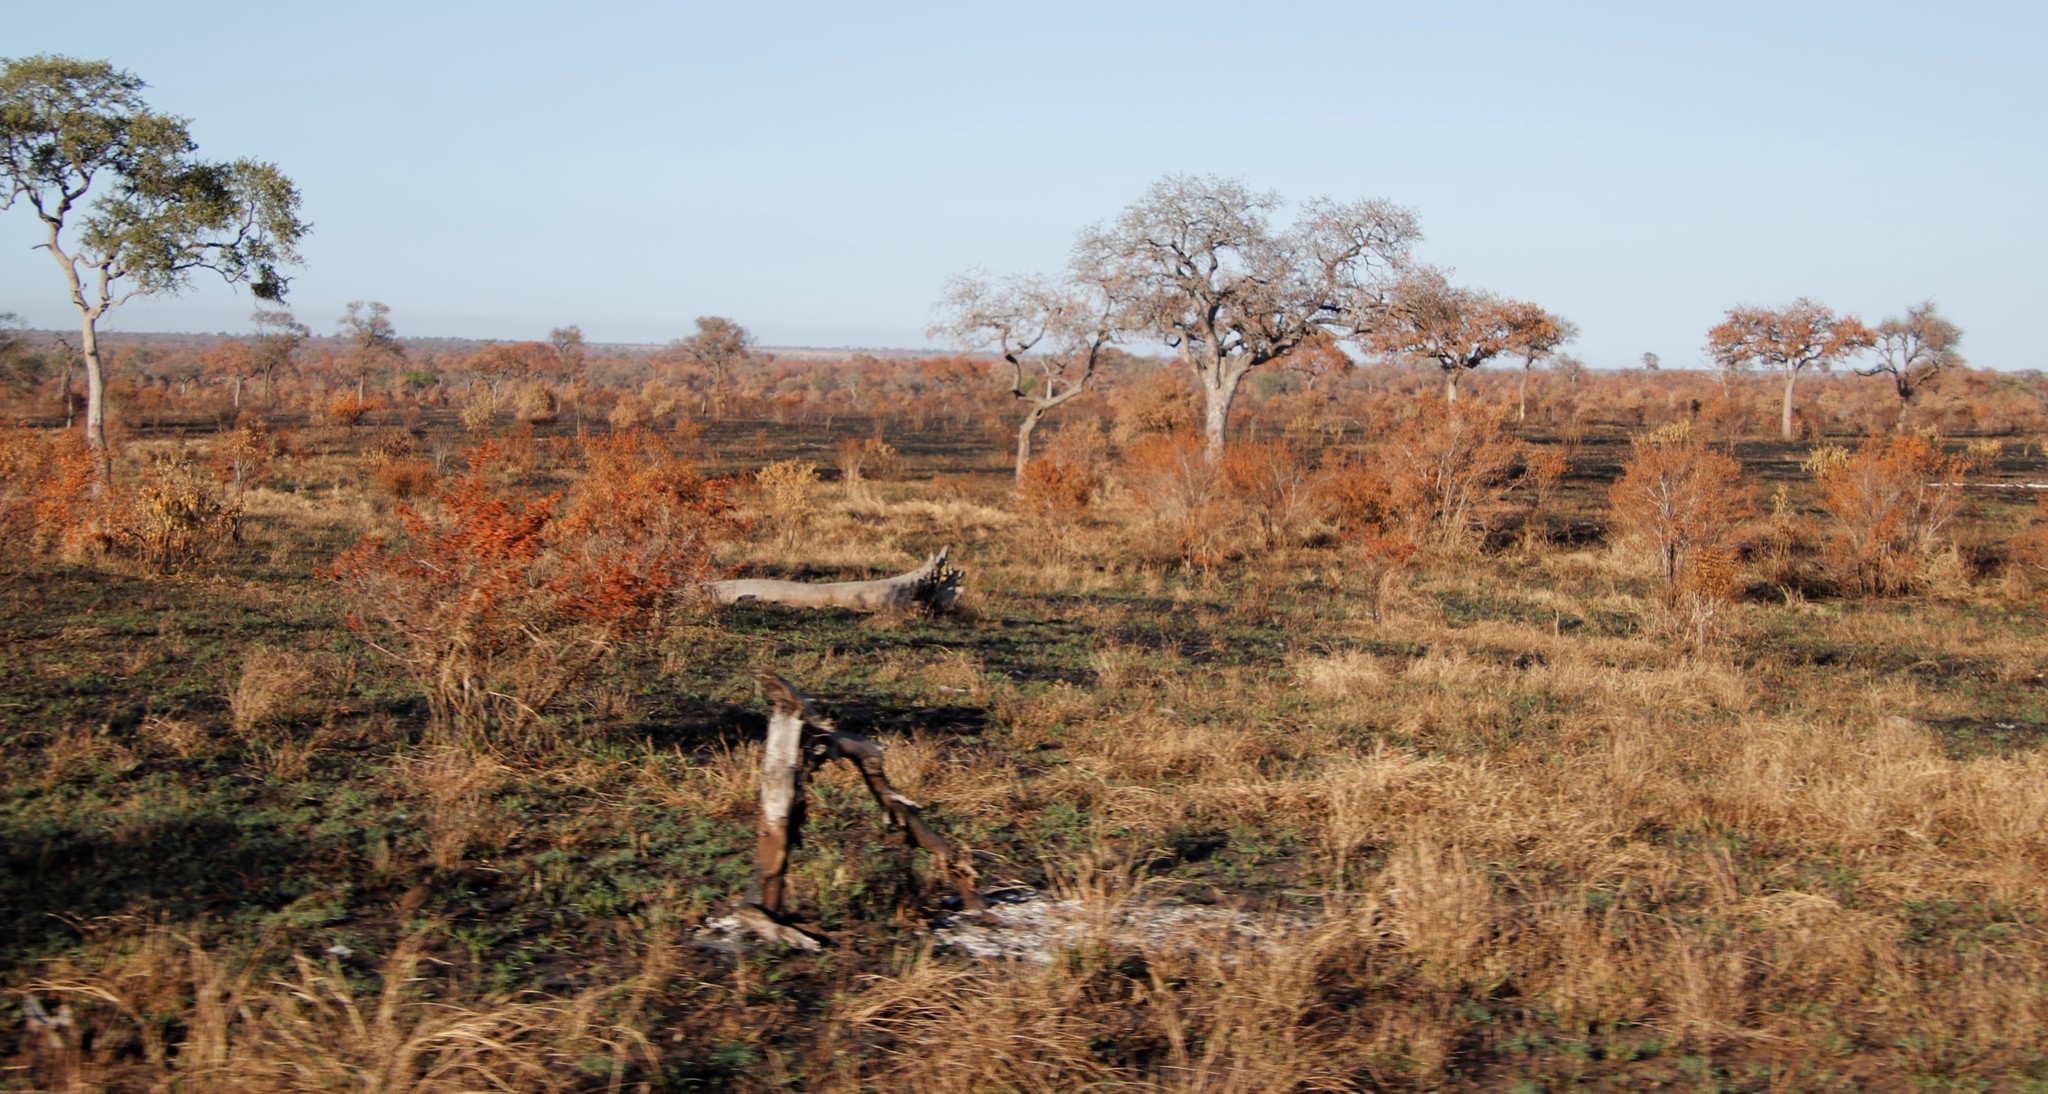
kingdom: Plantae
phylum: Tracheophyta
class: Magnoliopsida
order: Sapindales
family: Anacardiaceae
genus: Sclerocarya
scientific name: Sclerocarya birrea
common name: Marula
